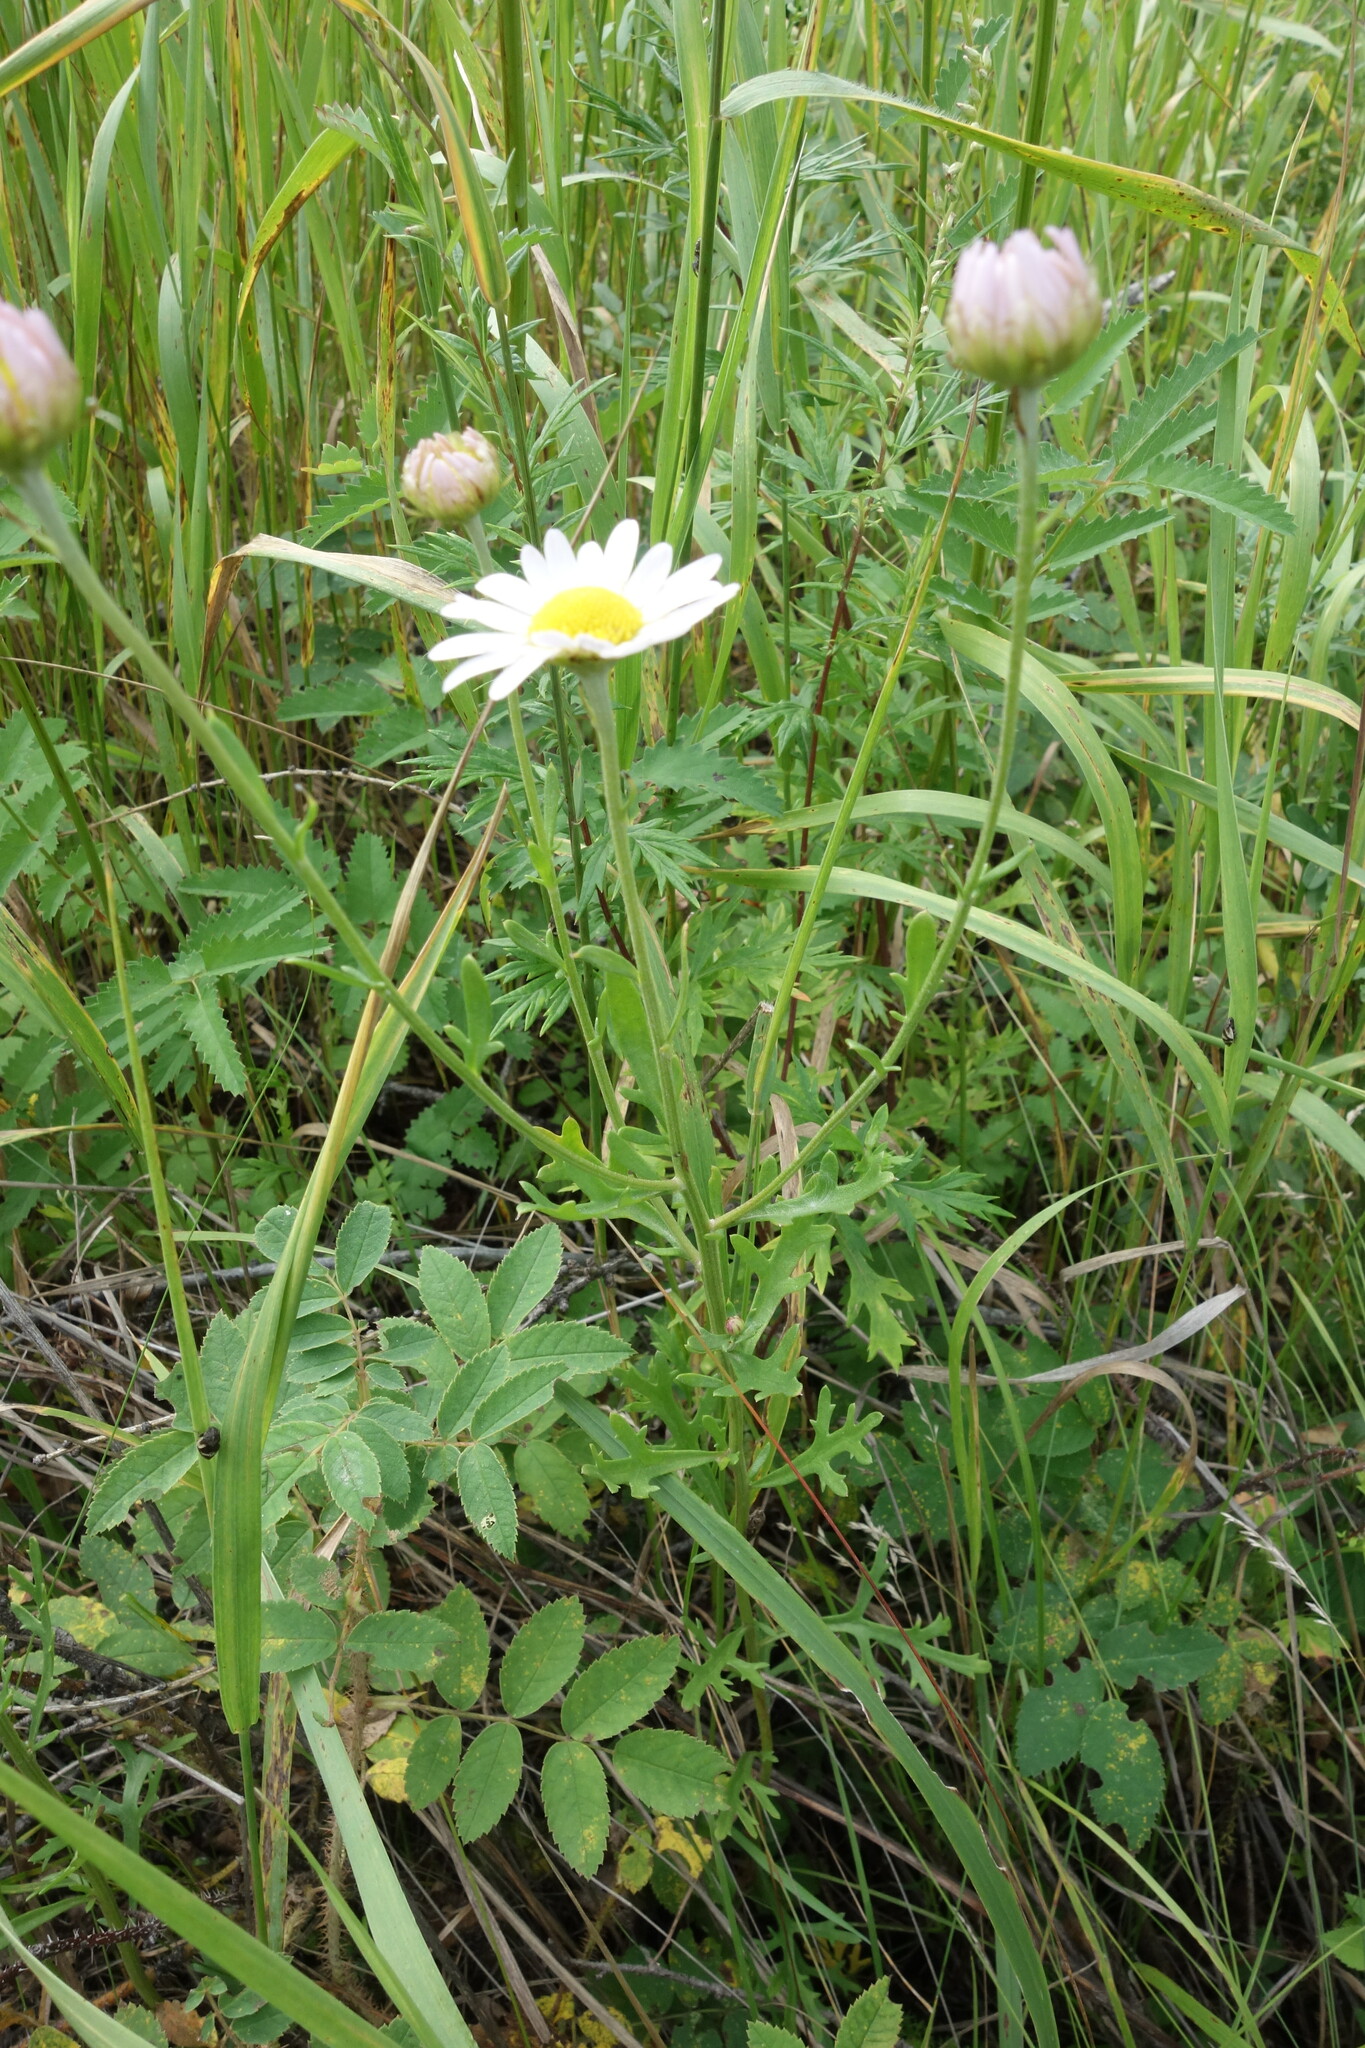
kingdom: Plantae
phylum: Tracheophyta
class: Magnoliopsida
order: Asterales
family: Asteraceae
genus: Chrysanthemum
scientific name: Chrysanthemum zawadzkii
